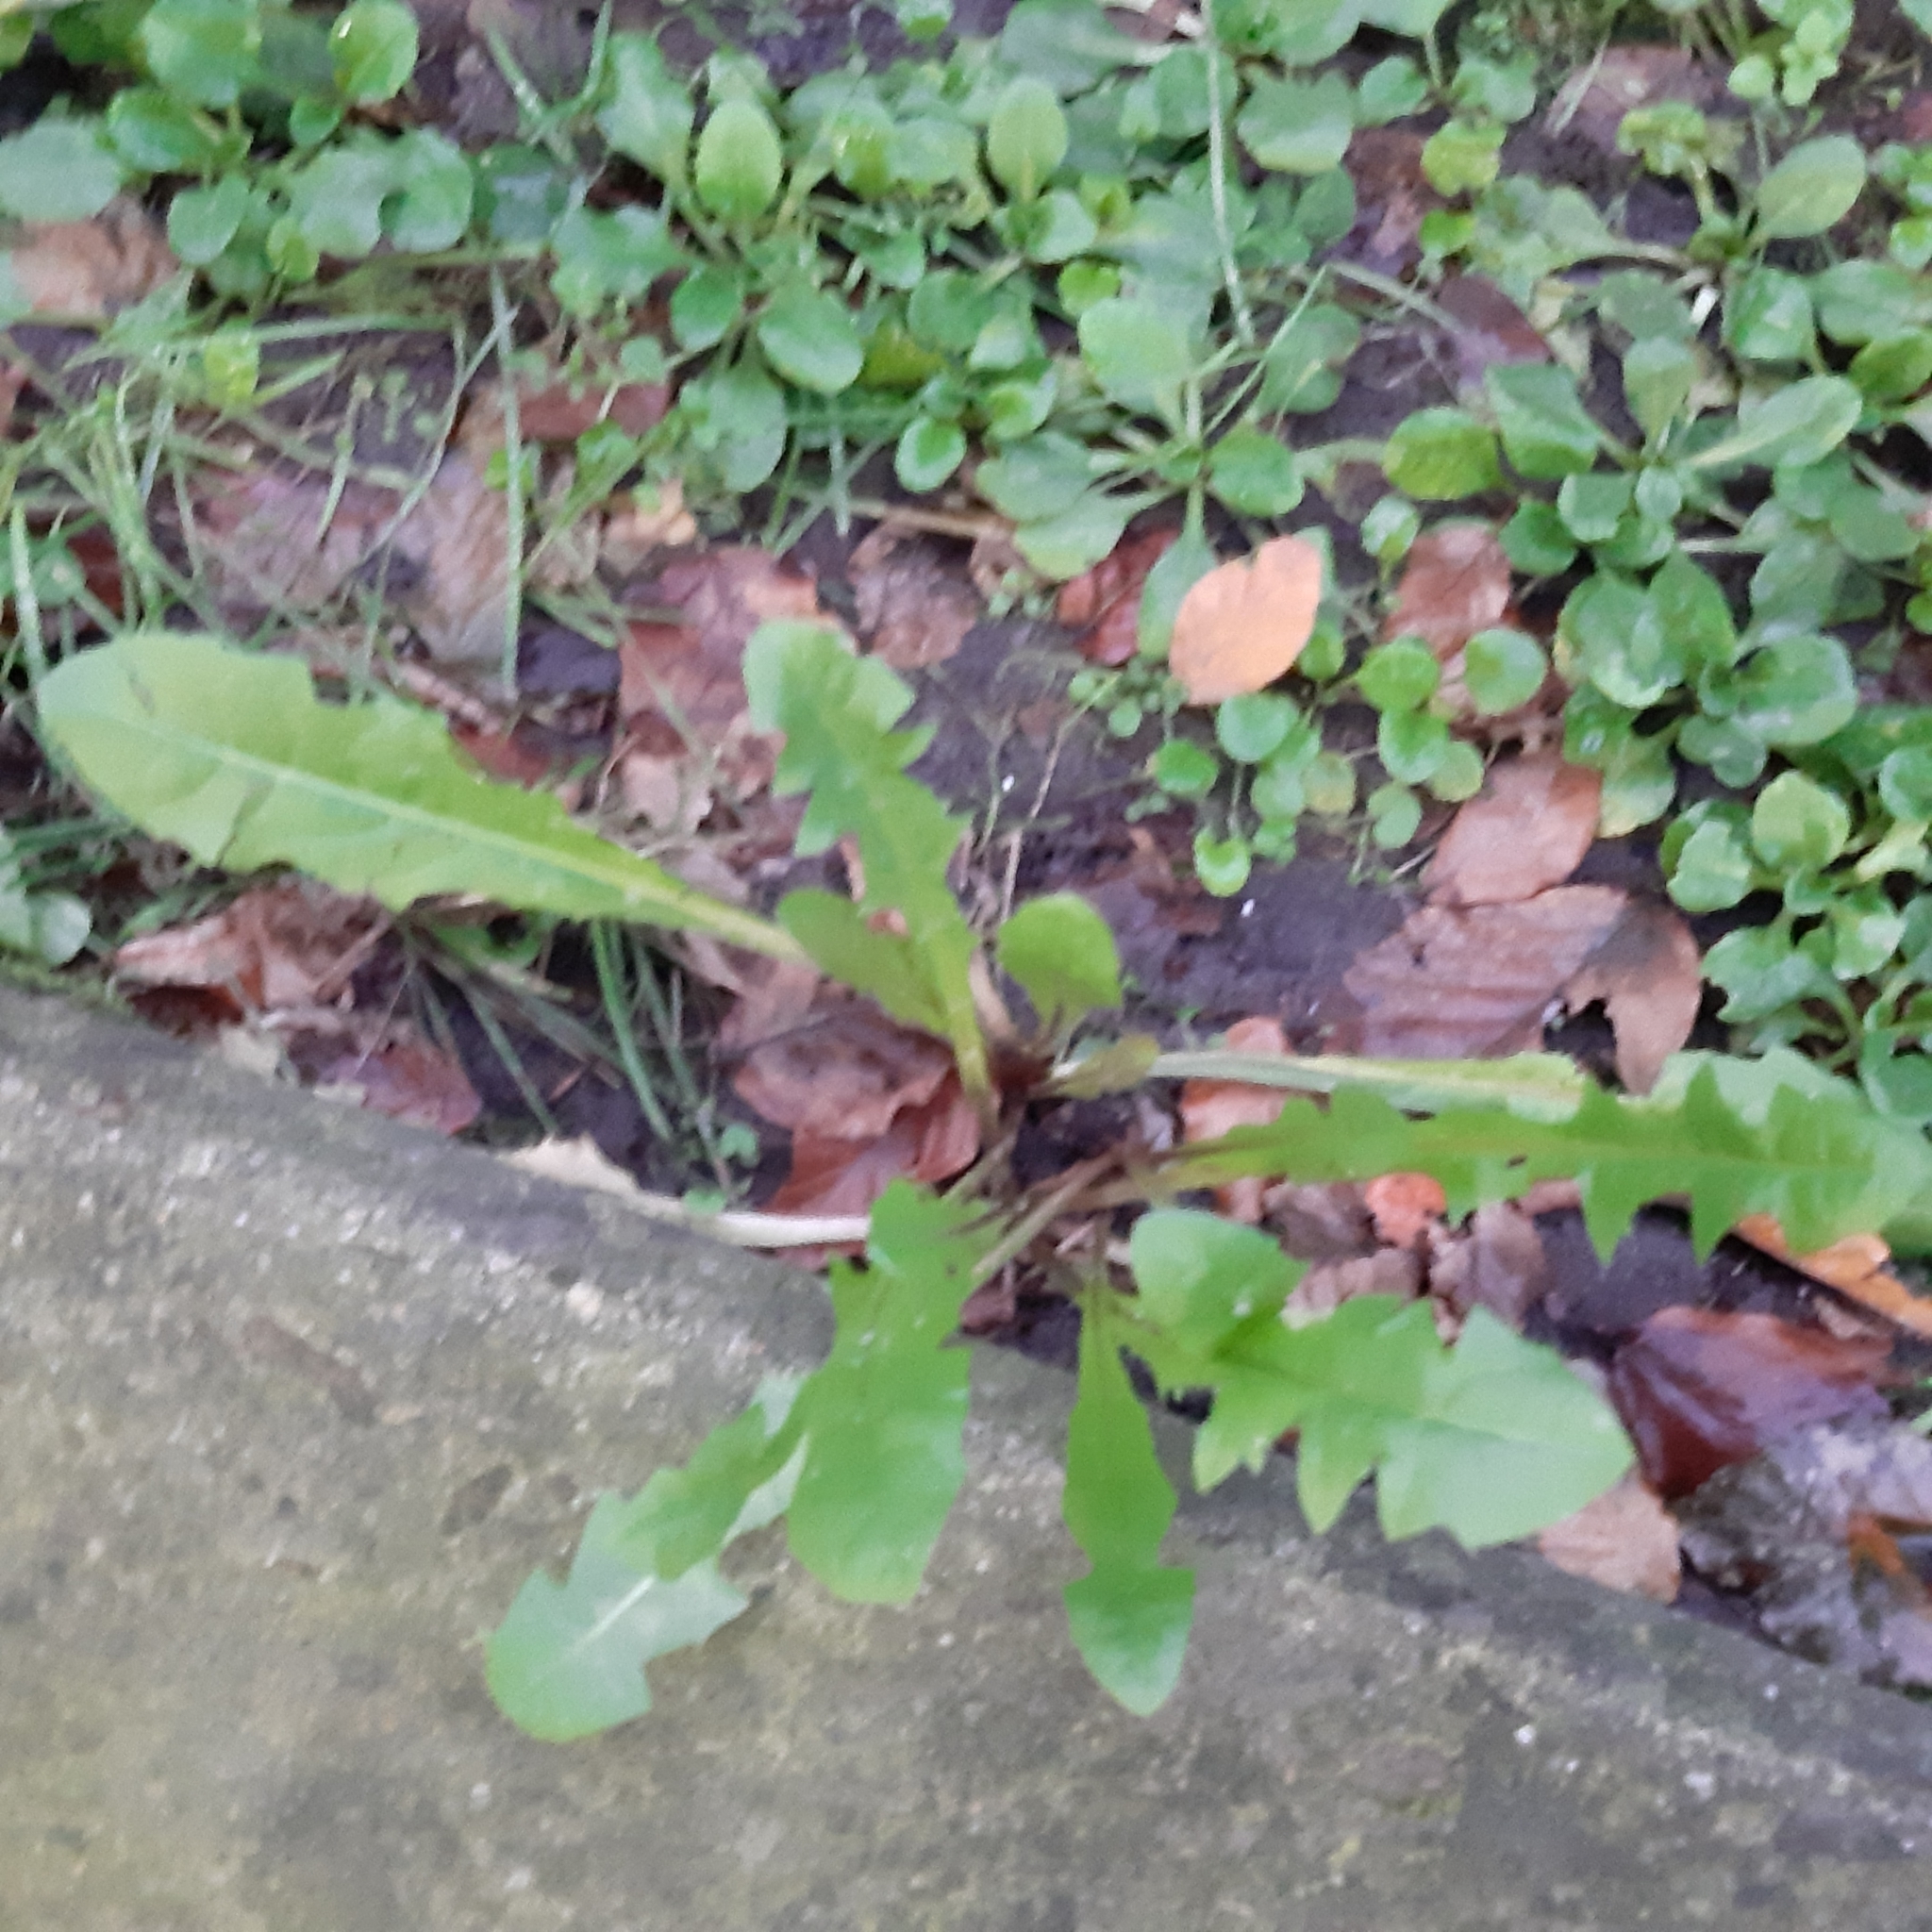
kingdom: Plantae
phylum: Tracheophyta
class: Magnoliopsida
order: Asterales
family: Asteraceae
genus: Taraxacum
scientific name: Taraxacum officinale
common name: Common dandelion
